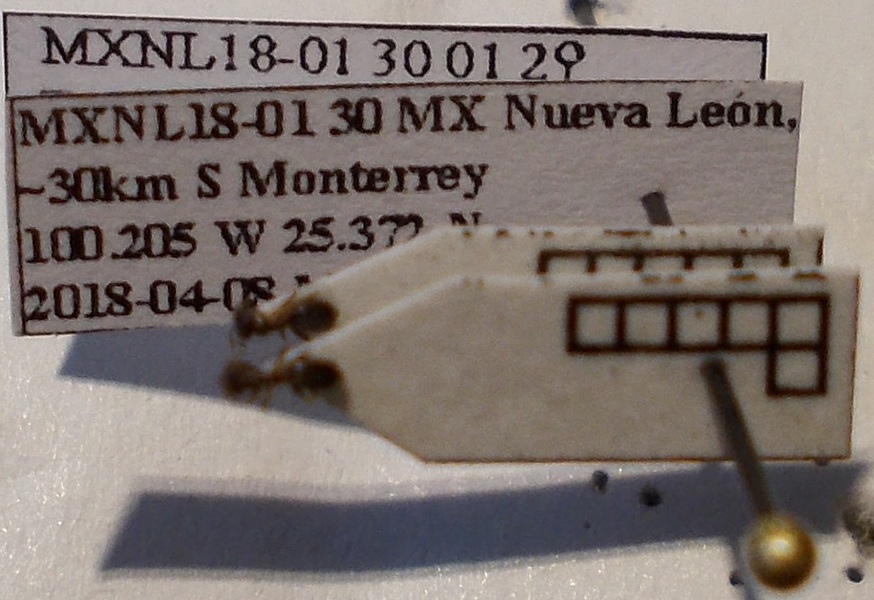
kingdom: Animalia
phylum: Arthropoda
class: Insecta
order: Hymenoptera
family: Formicidae
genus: Tapinoma
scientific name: Tapinoma sessile
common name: Odorous house ant
